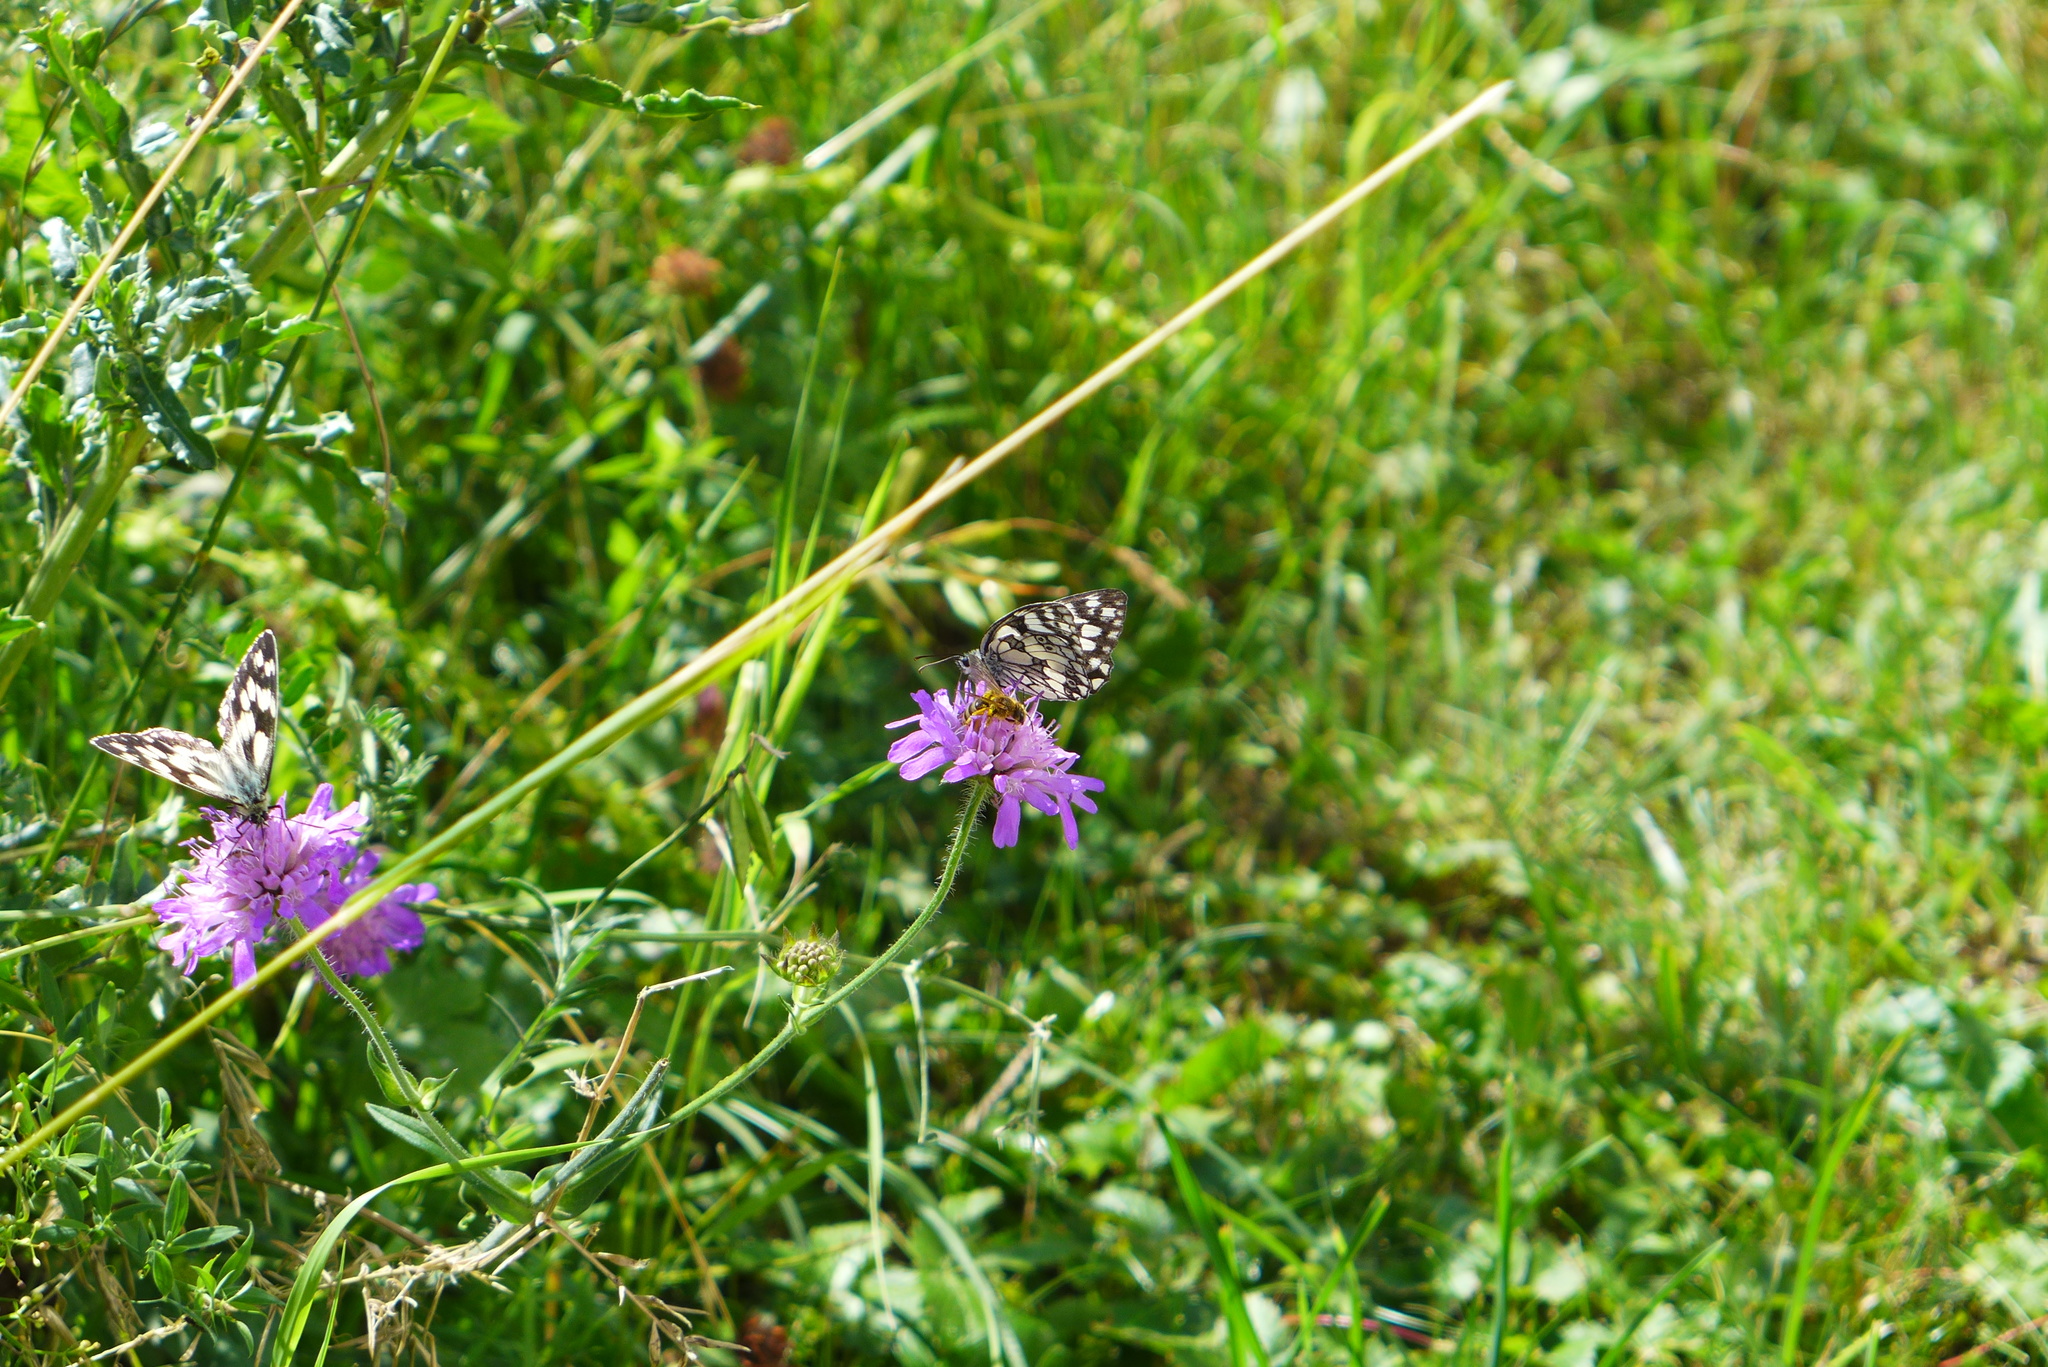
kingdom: Animalia
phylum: Arthropoda
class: Insecta
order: Lepidoptera
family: Nymphalidae
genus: Melanargia
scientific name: Melanargia galathea
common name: Marbled white
